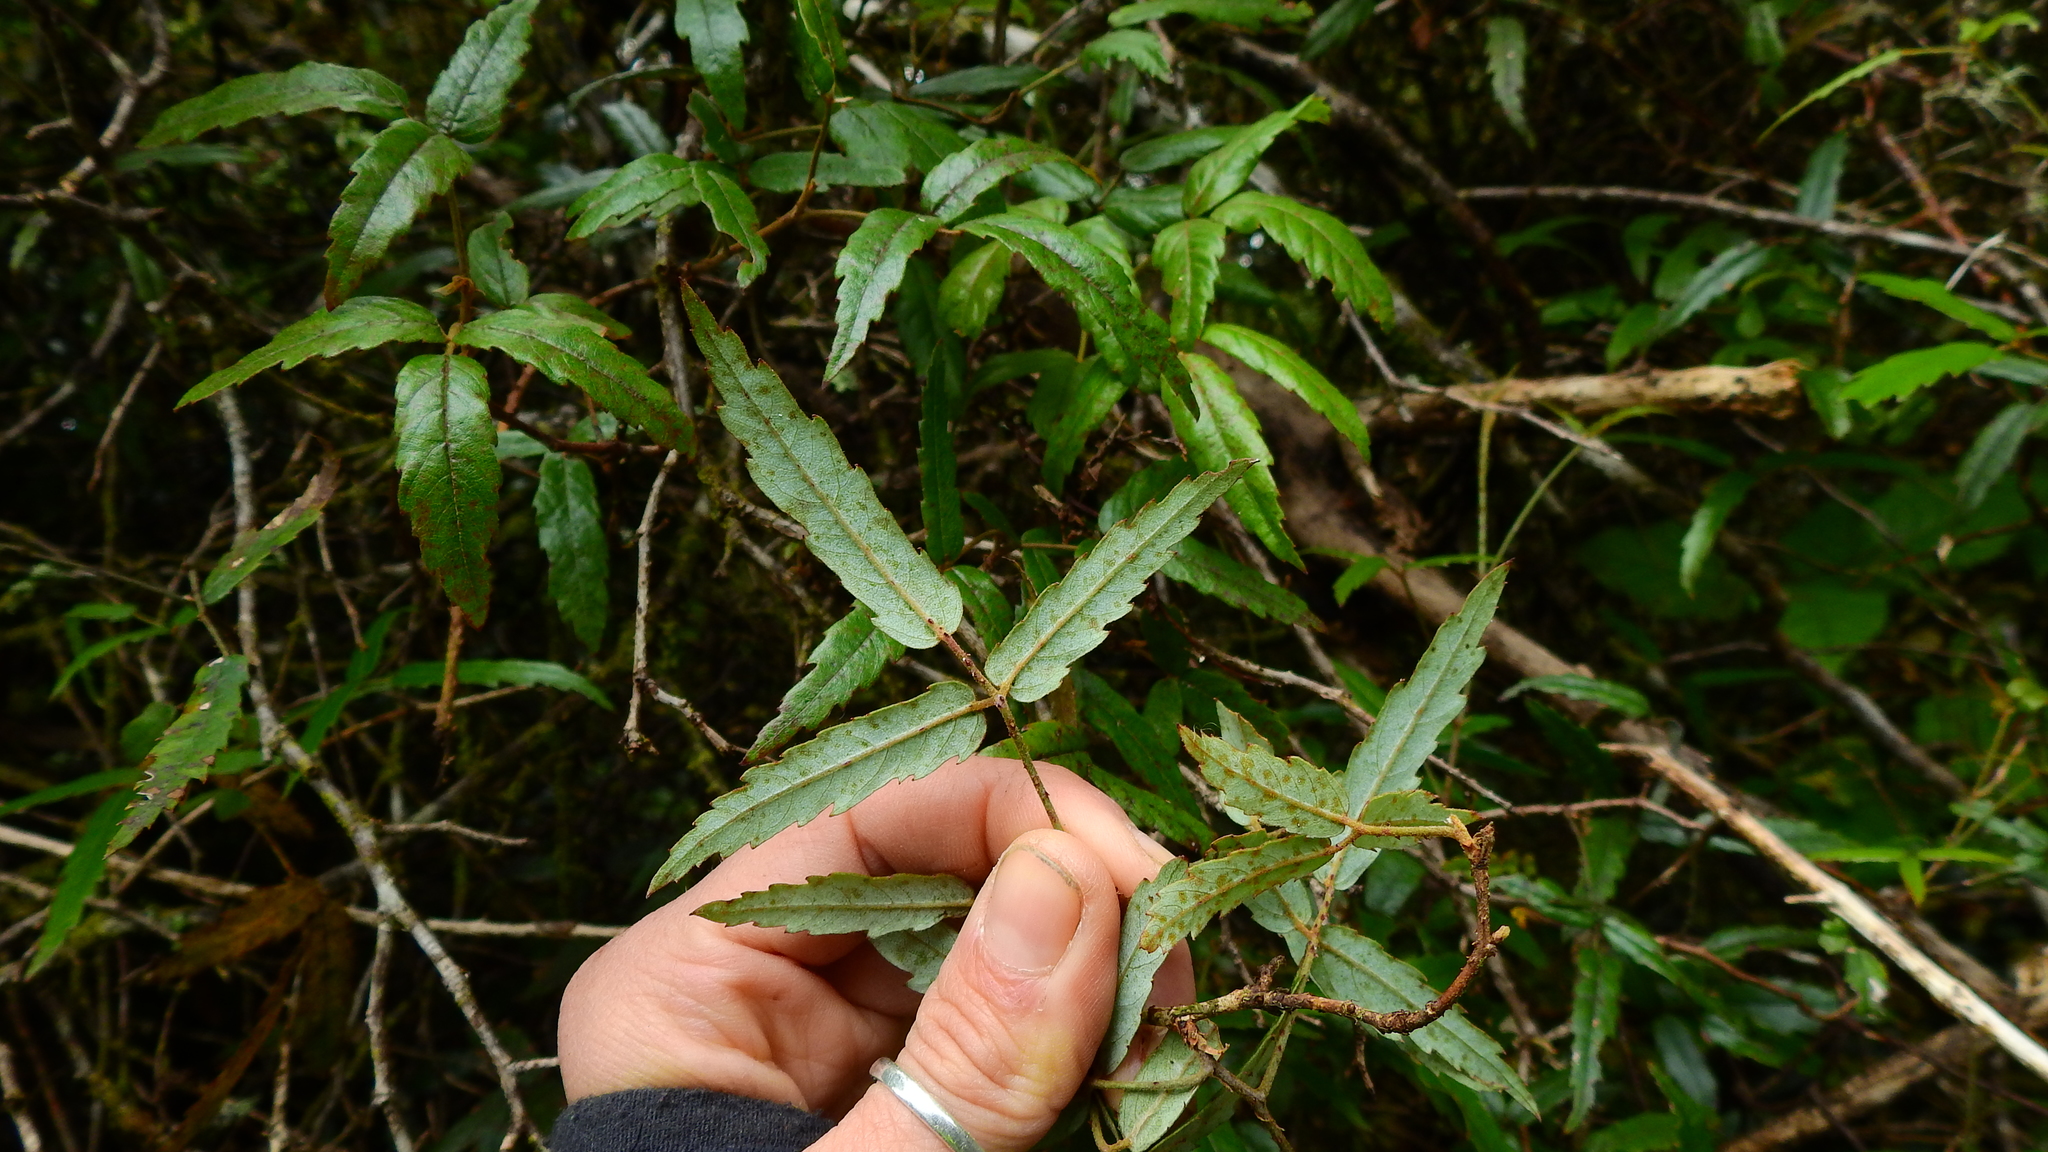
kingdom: Plantae
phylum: Tracheophyta
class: Magnoliopsida
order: Rosales
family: Rosaceae
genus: Rubus
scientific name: Rubus schmidelioides
